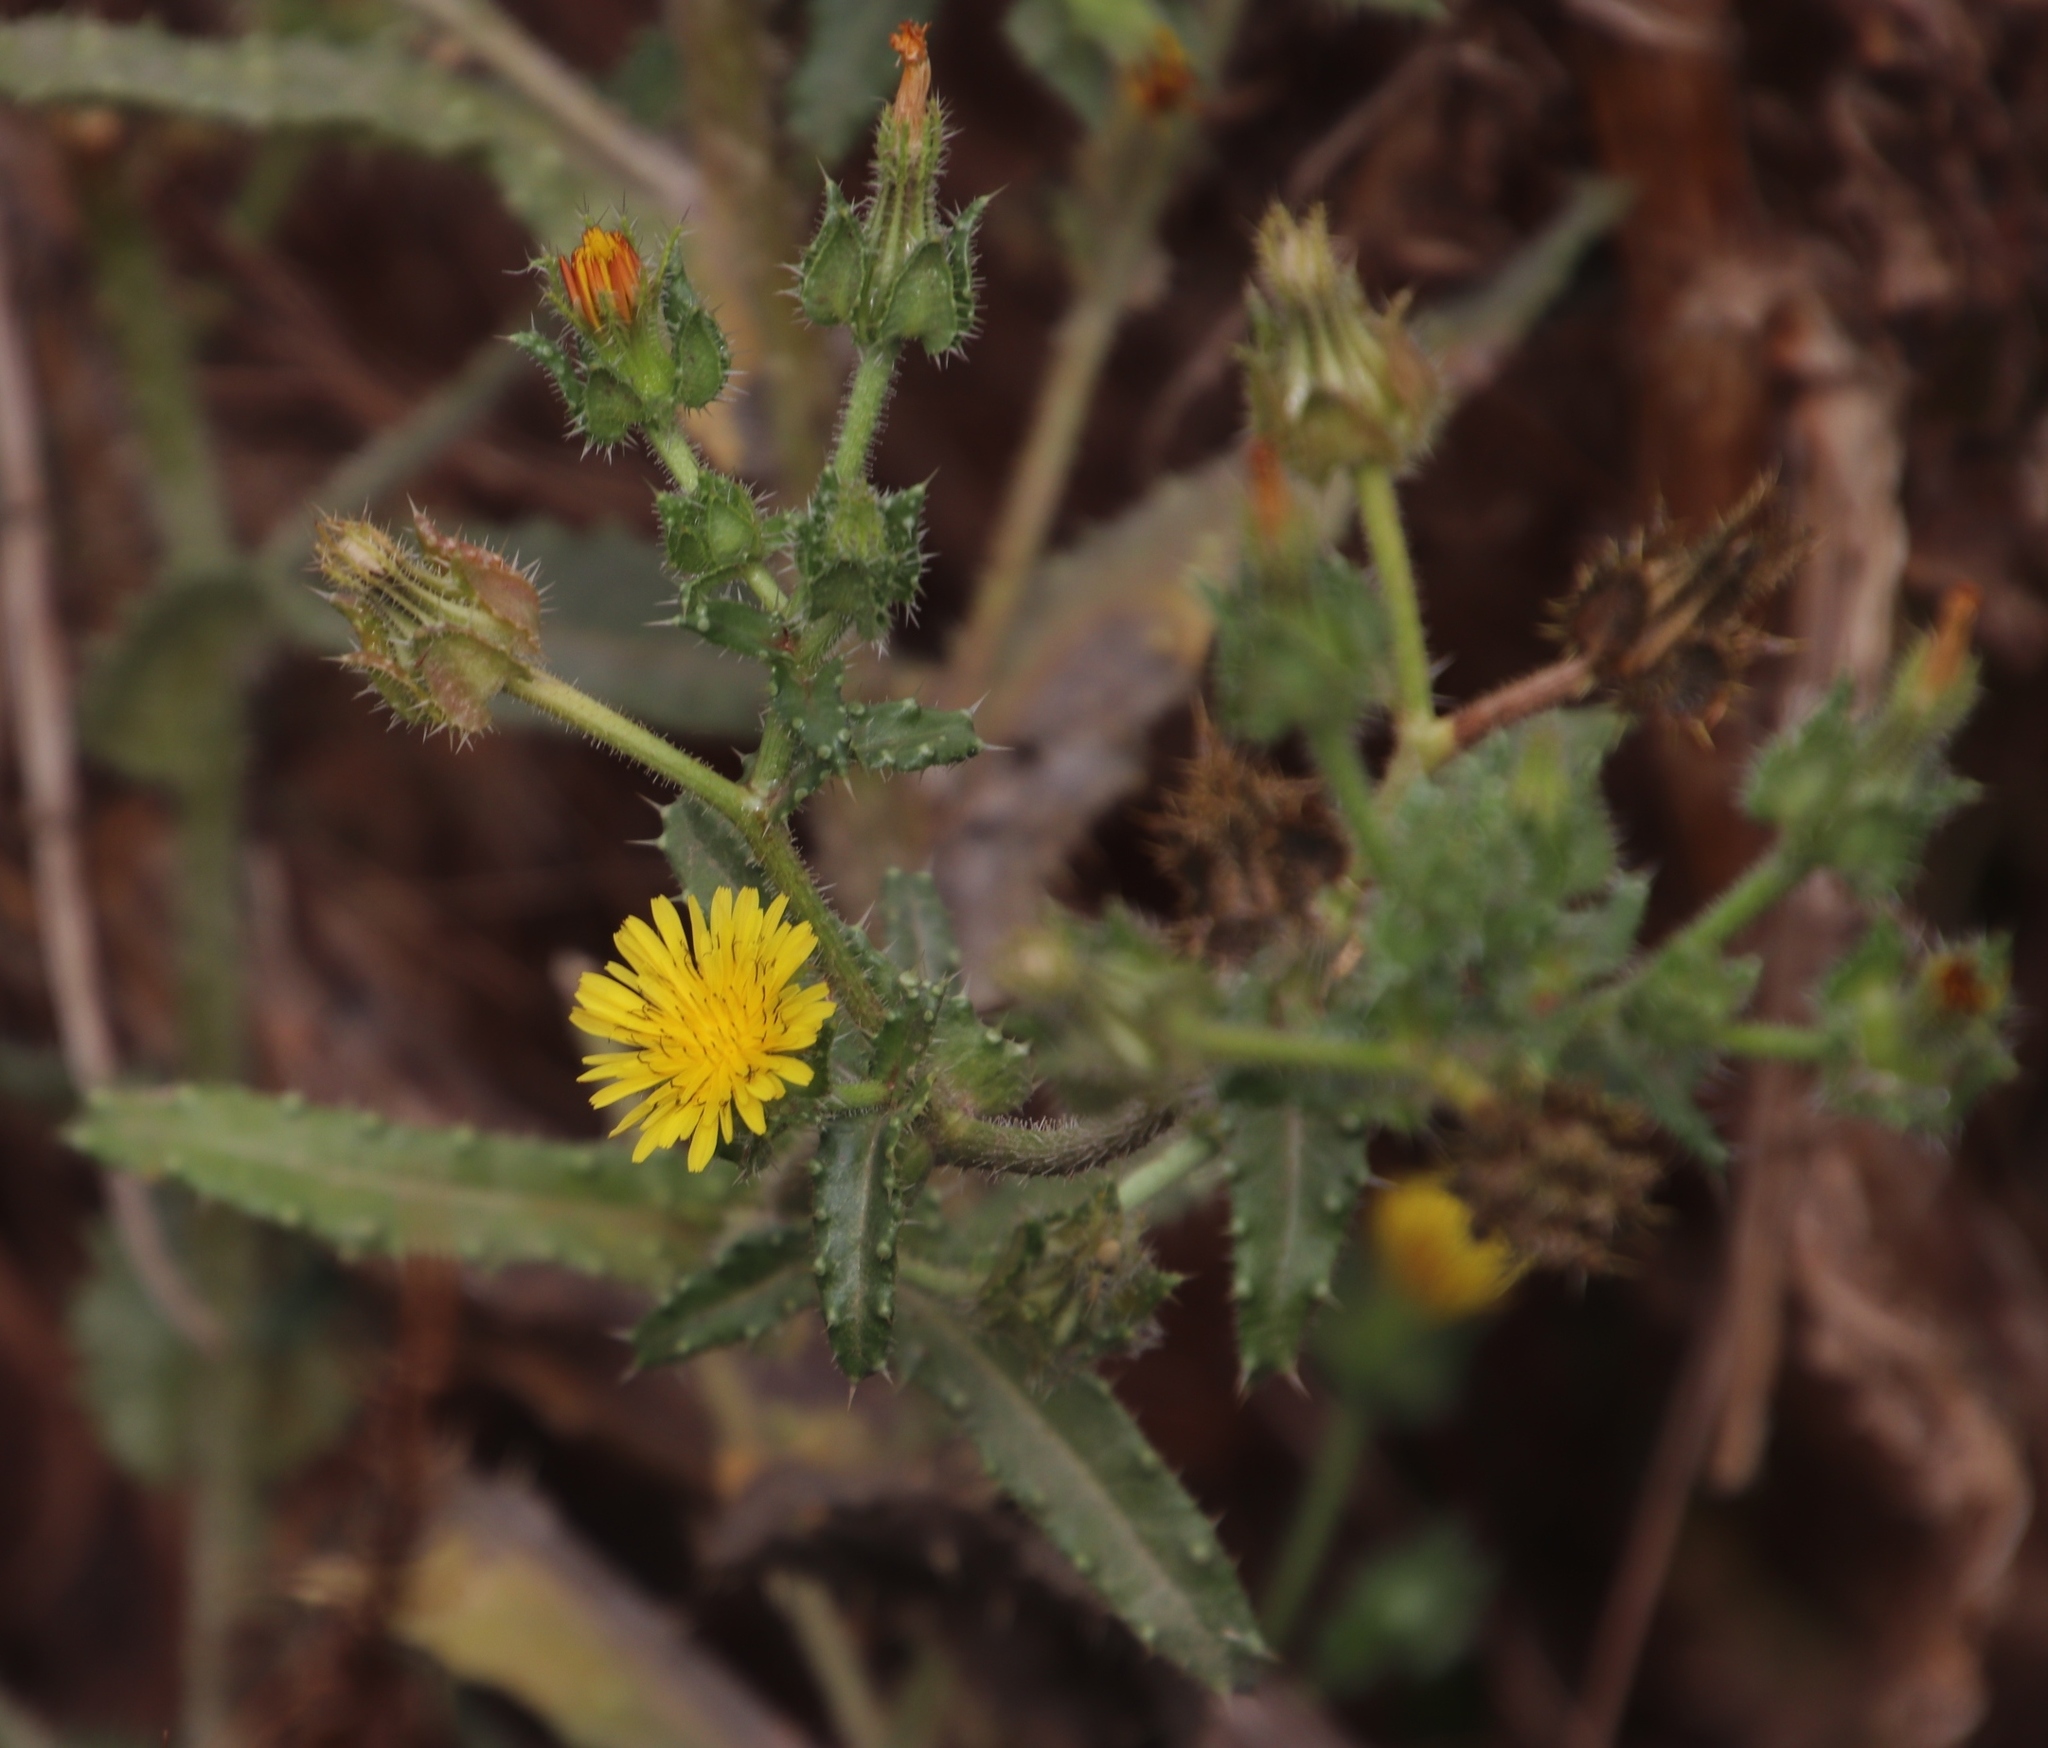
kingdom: Plantae
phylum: Tracheophyta
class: Magnoliopsida
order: Asterales
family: Asteraceae
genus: Helminthotheca
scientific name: Helminthotheca echioides
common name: Ox-tongue
